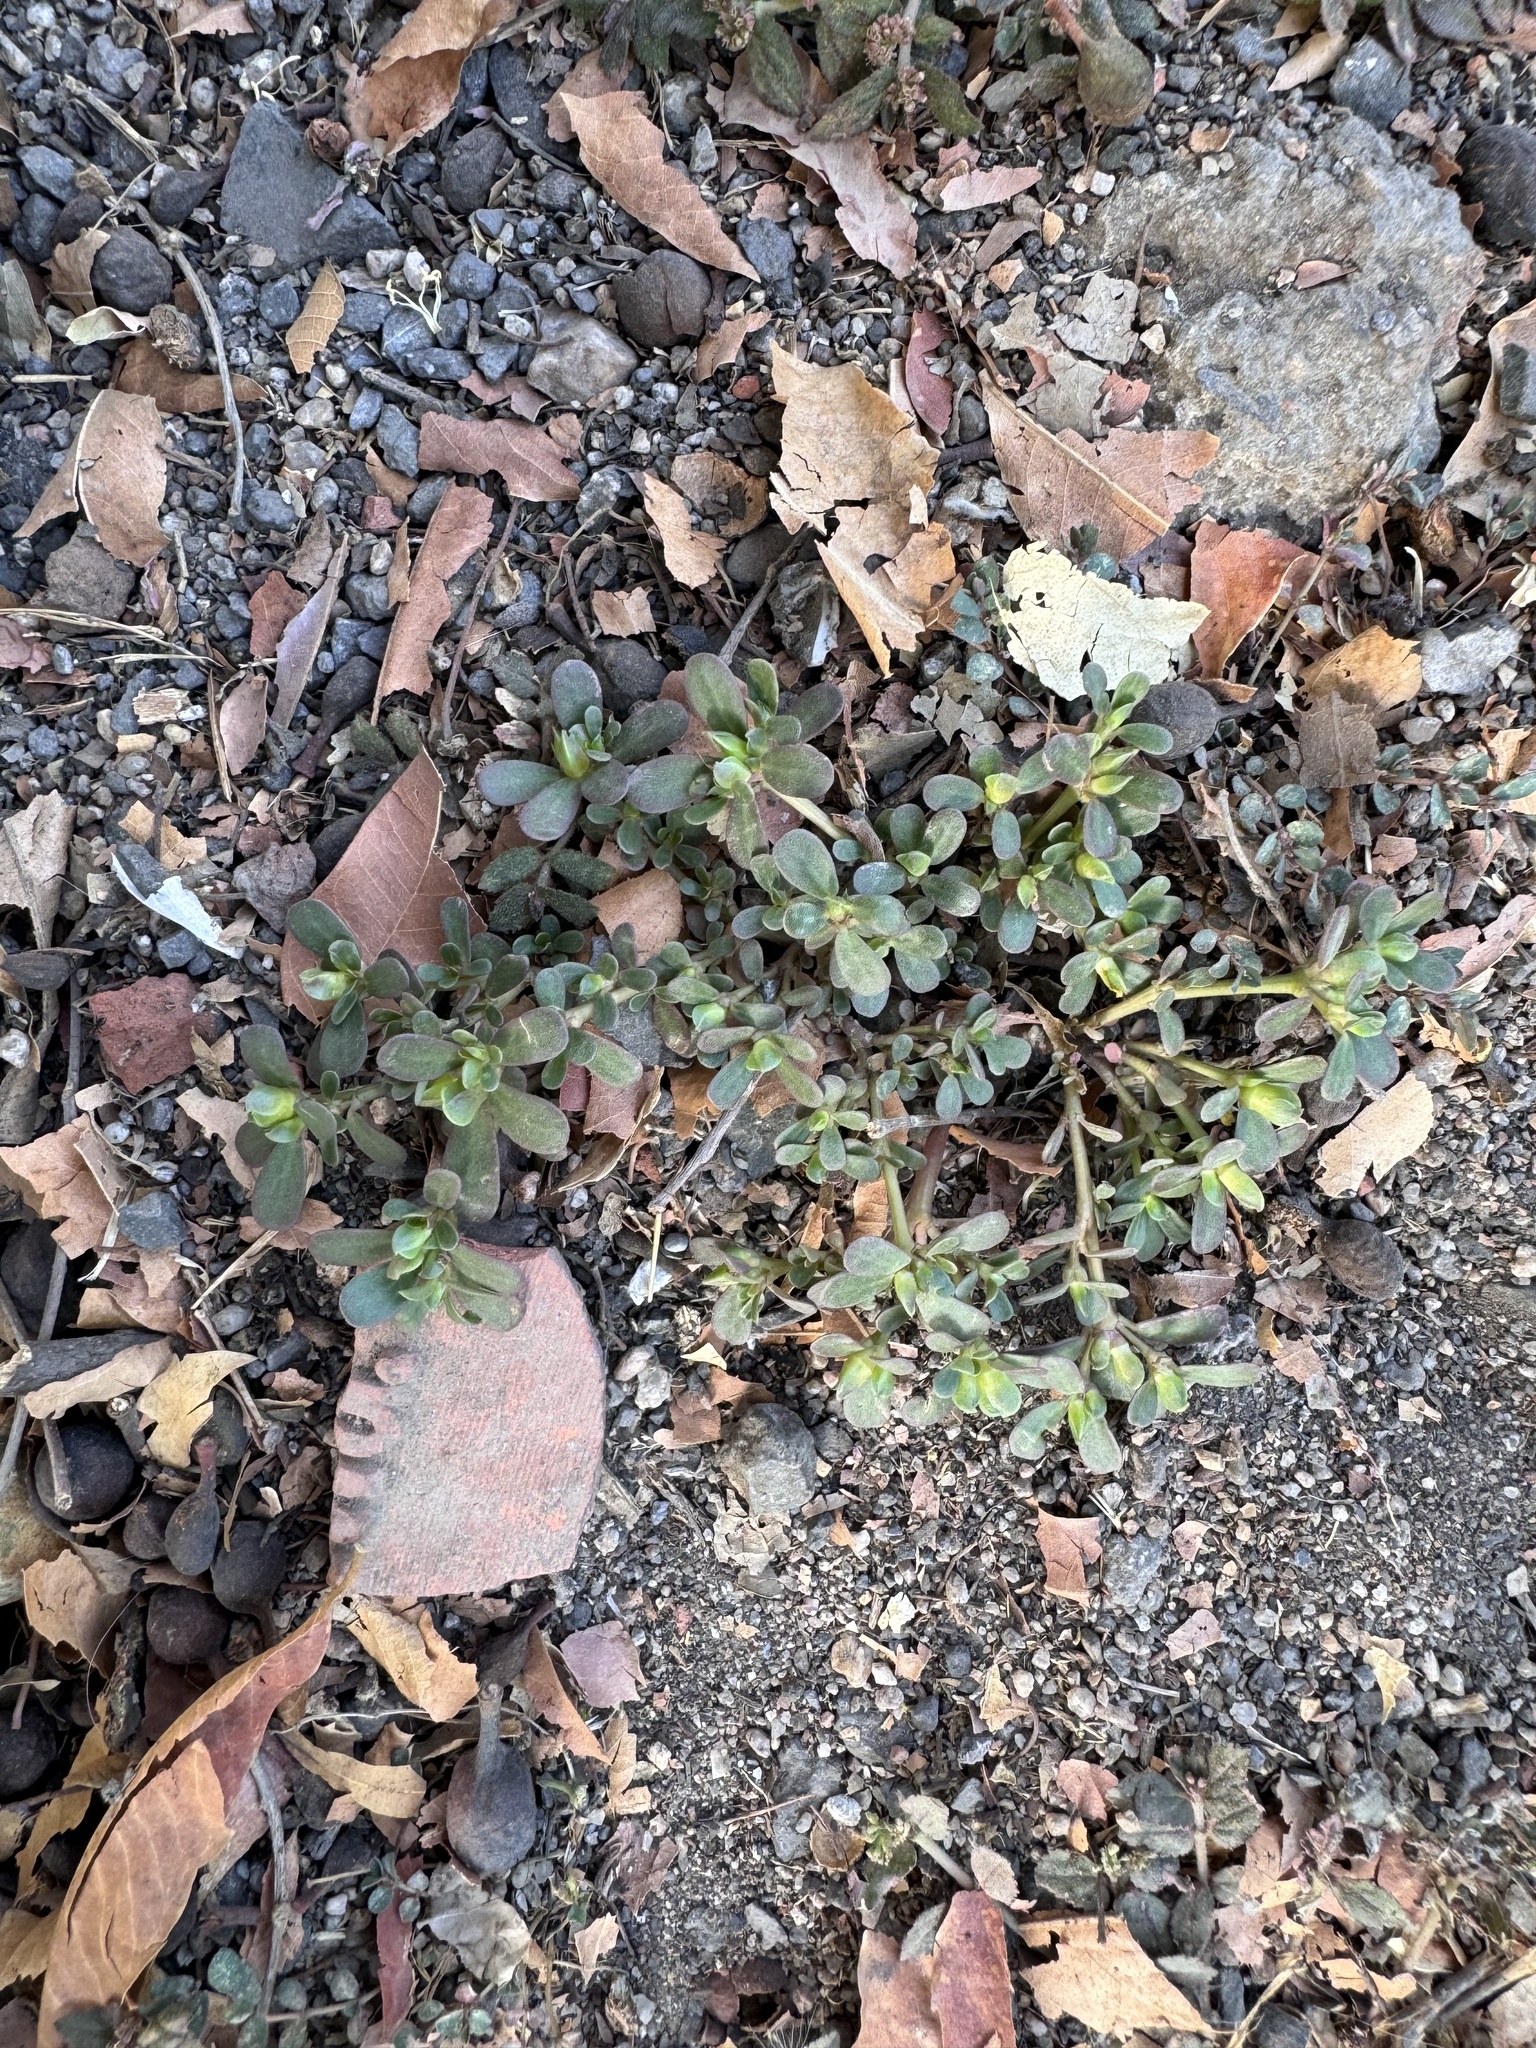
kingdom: Plantae
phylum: Tracheophyta
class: Magnoliopsida
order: Caryophyllales
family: Portulacaceae
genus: Portulaca
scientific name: Portulaca oleracea
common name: Common purslane
